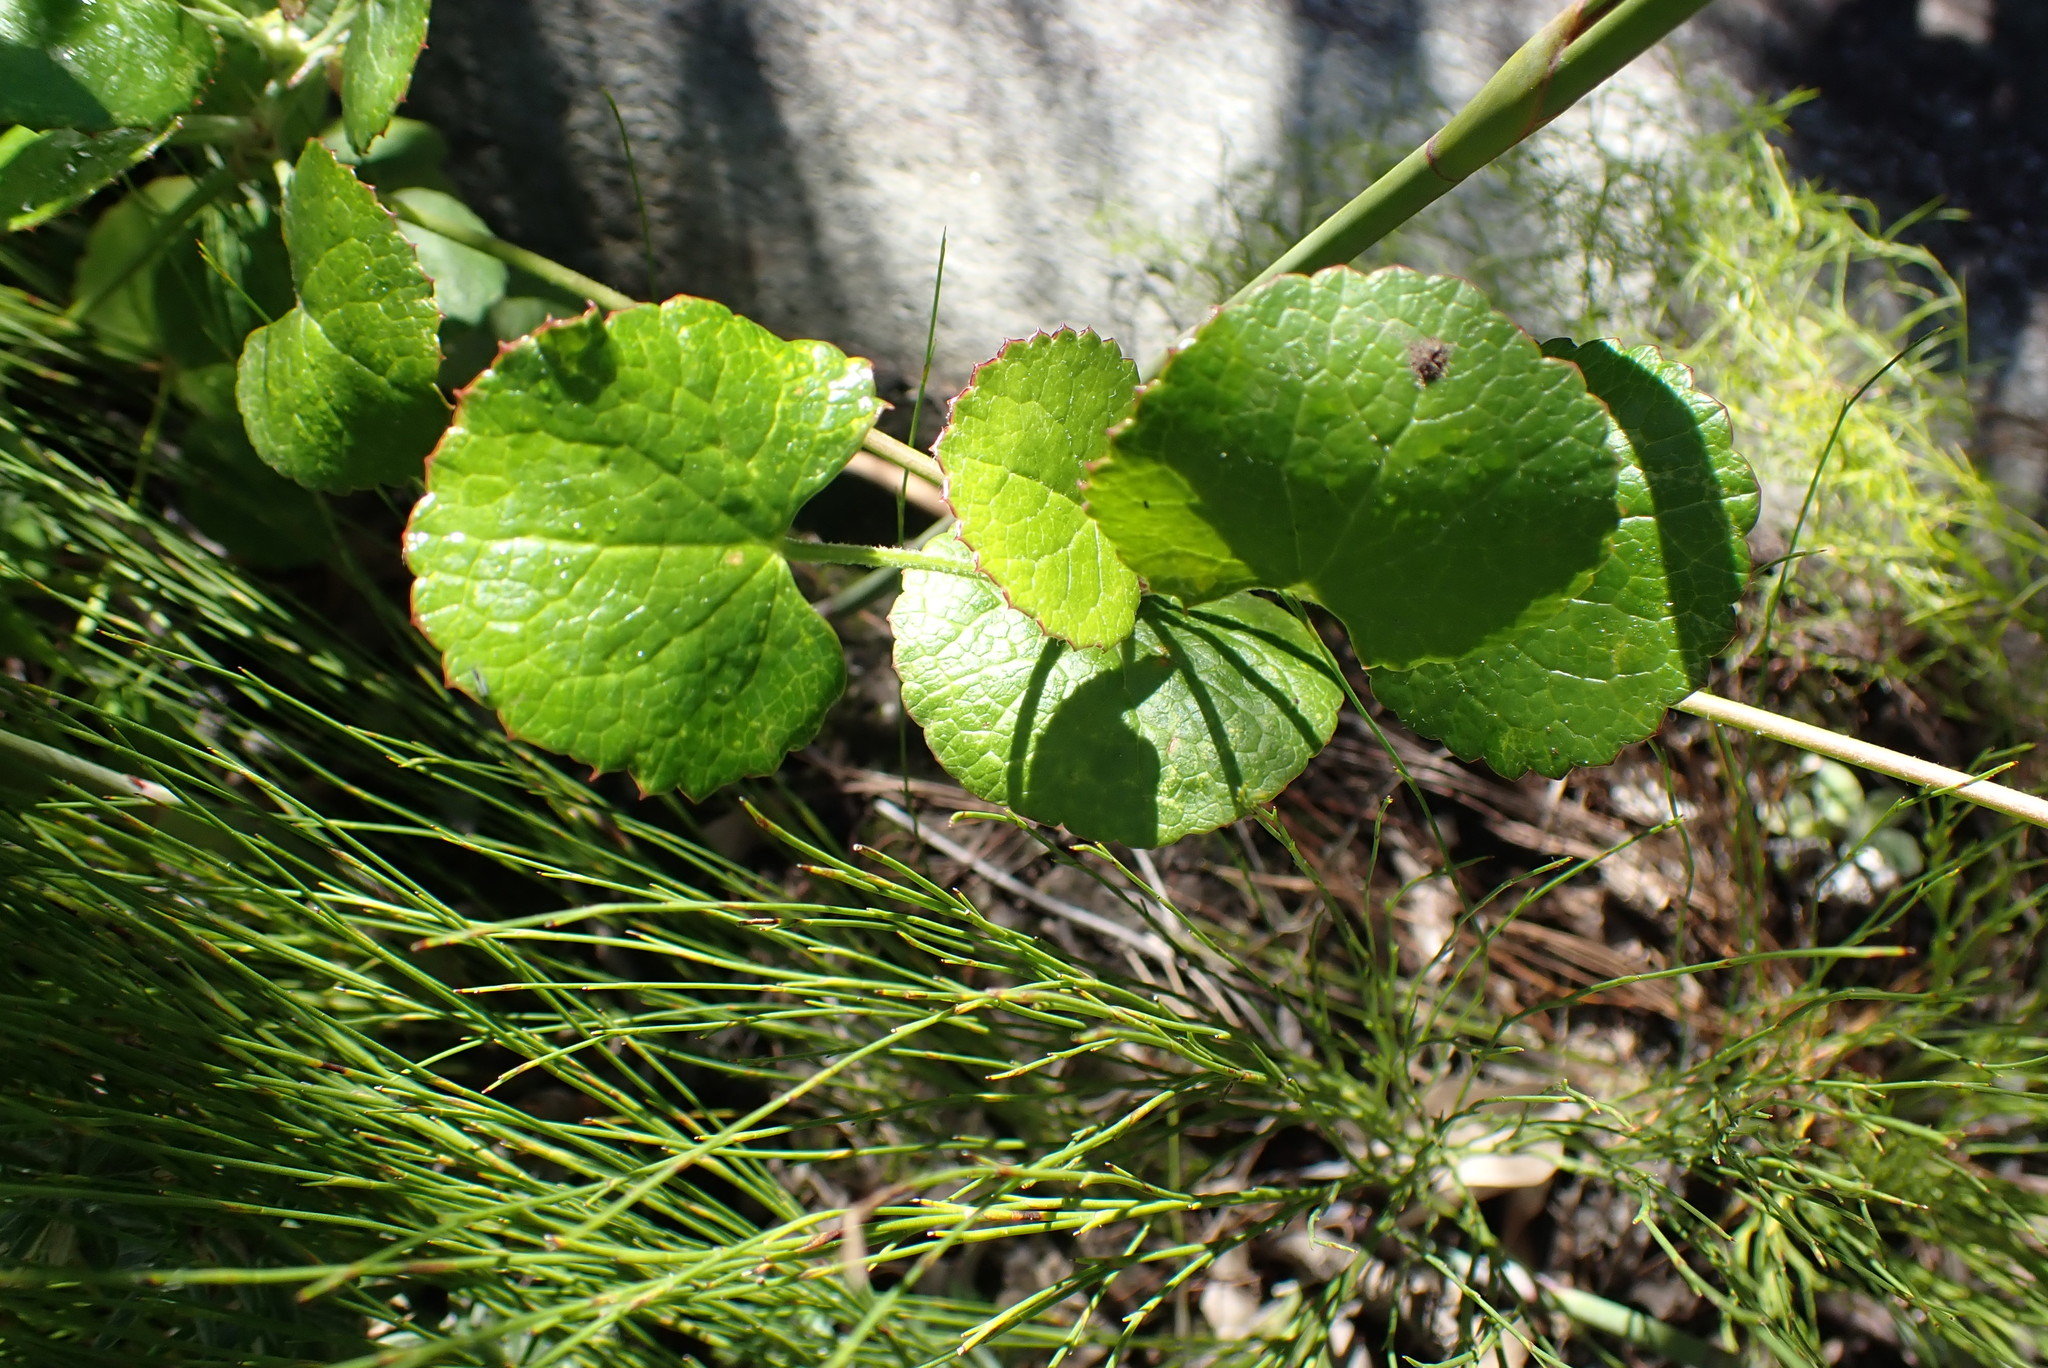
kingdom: Plantae
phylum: Tracheophyta
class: Magnoliopsida
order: Apiales
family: Apiaceae
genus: Centella
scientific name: Centella asiatica
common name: Spadeleaf
